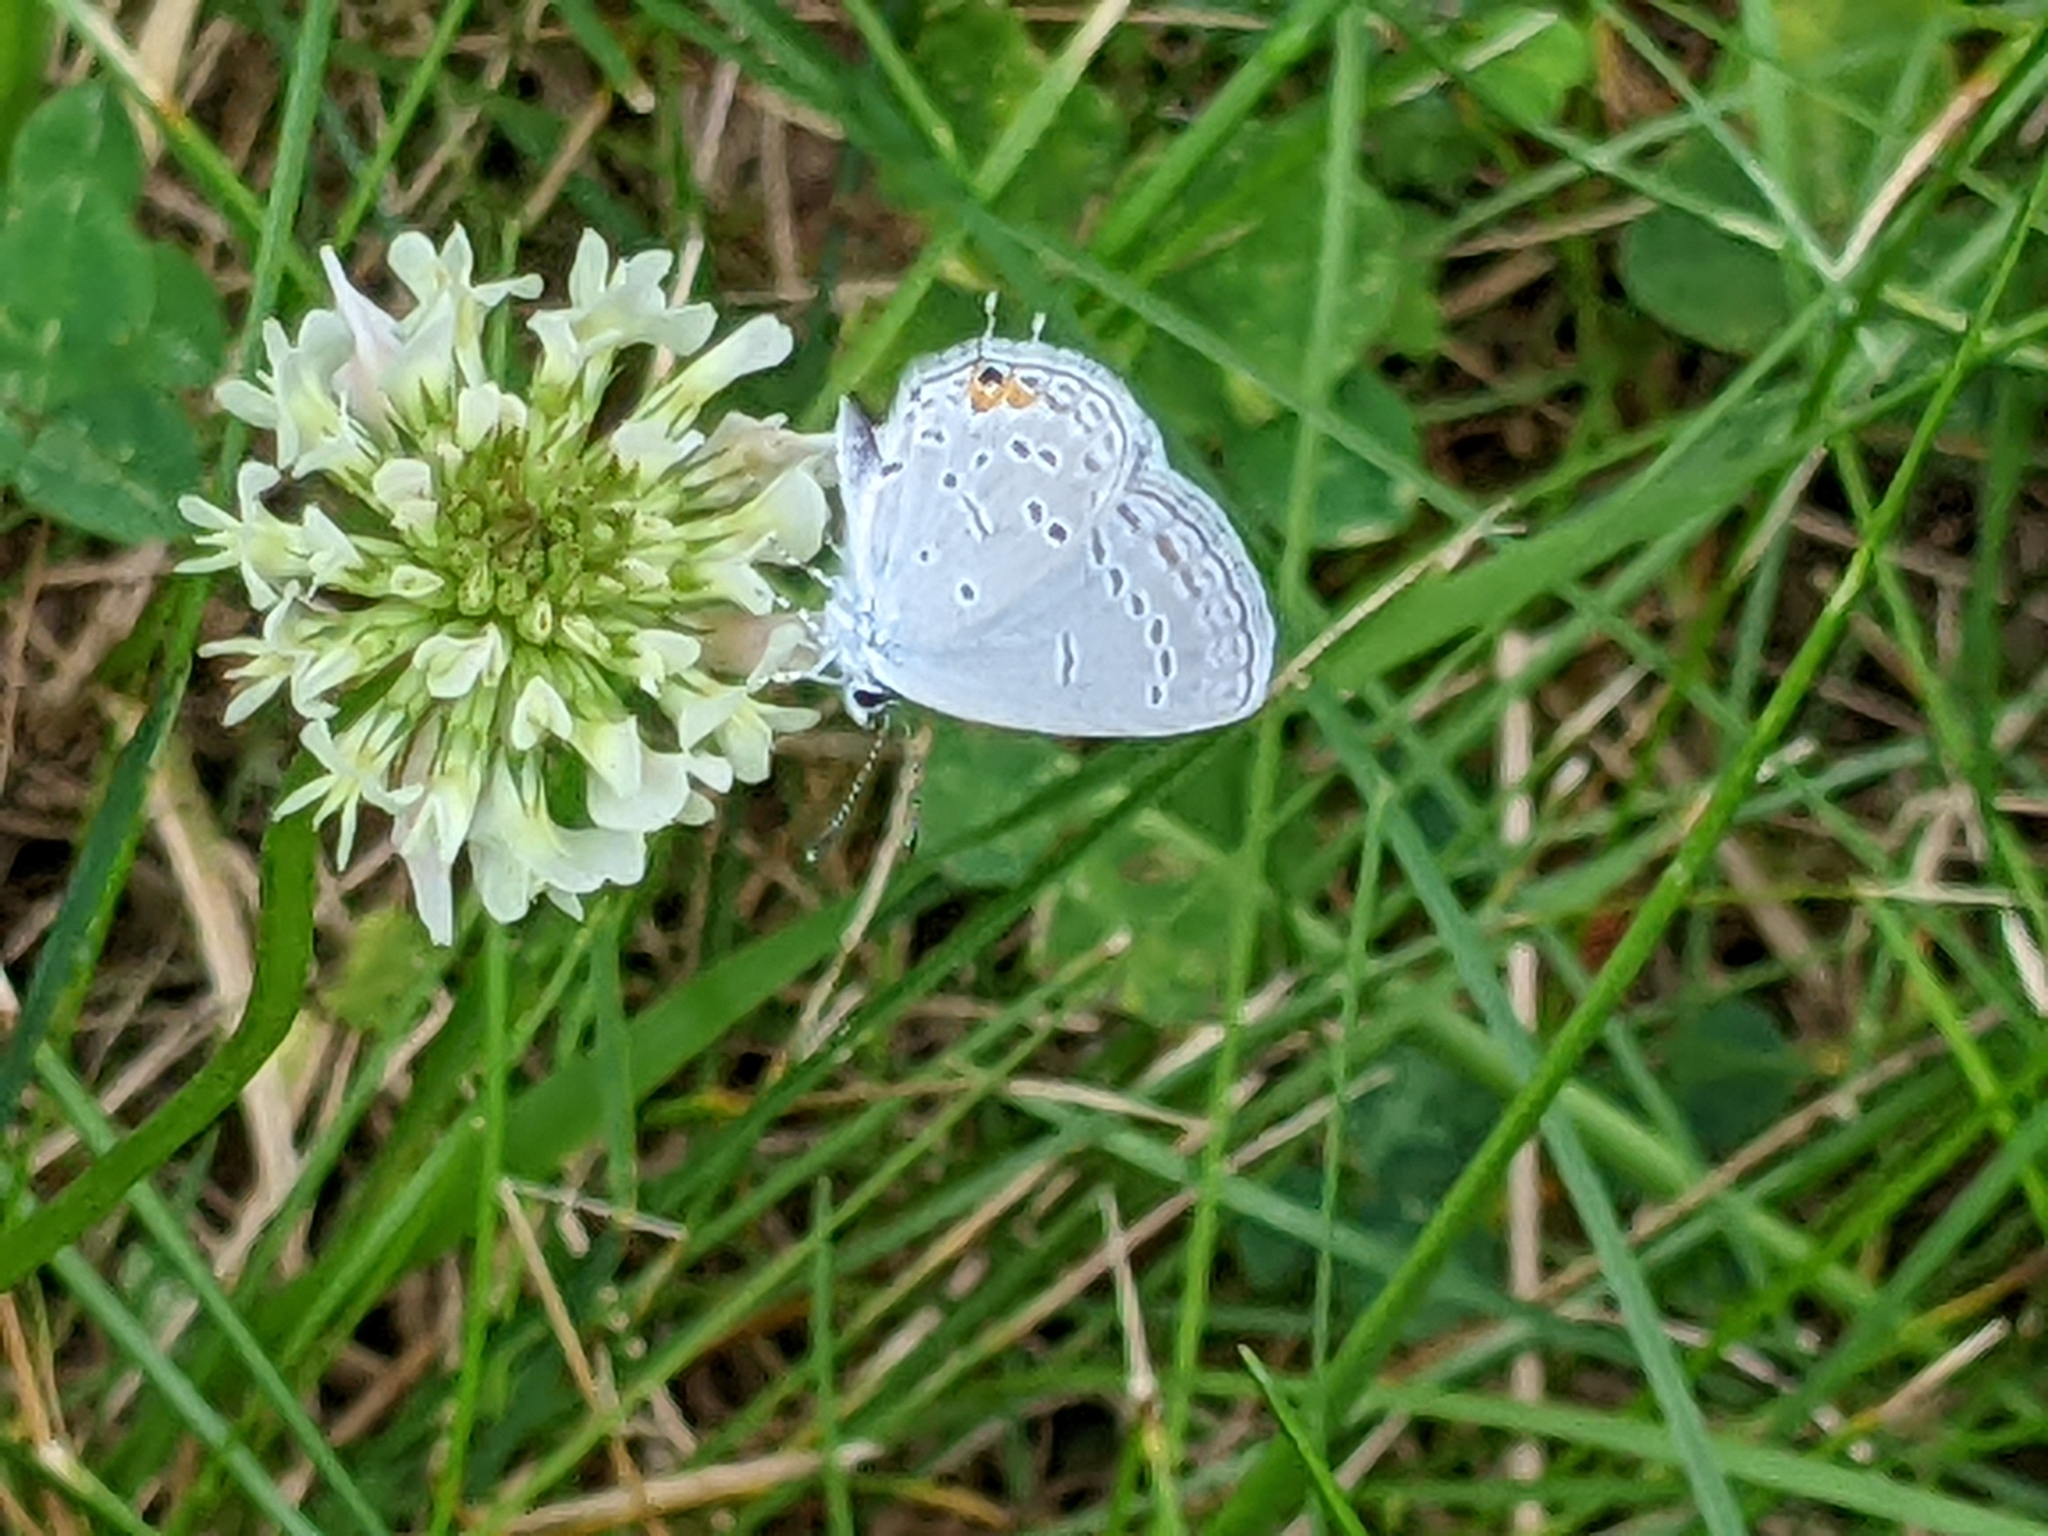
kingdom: Animalia
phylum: Arthropoda
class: Insecta
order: Lepidoptera
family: Lycaenidae
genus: Elkalyce
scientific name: Elkalyce comyntas
